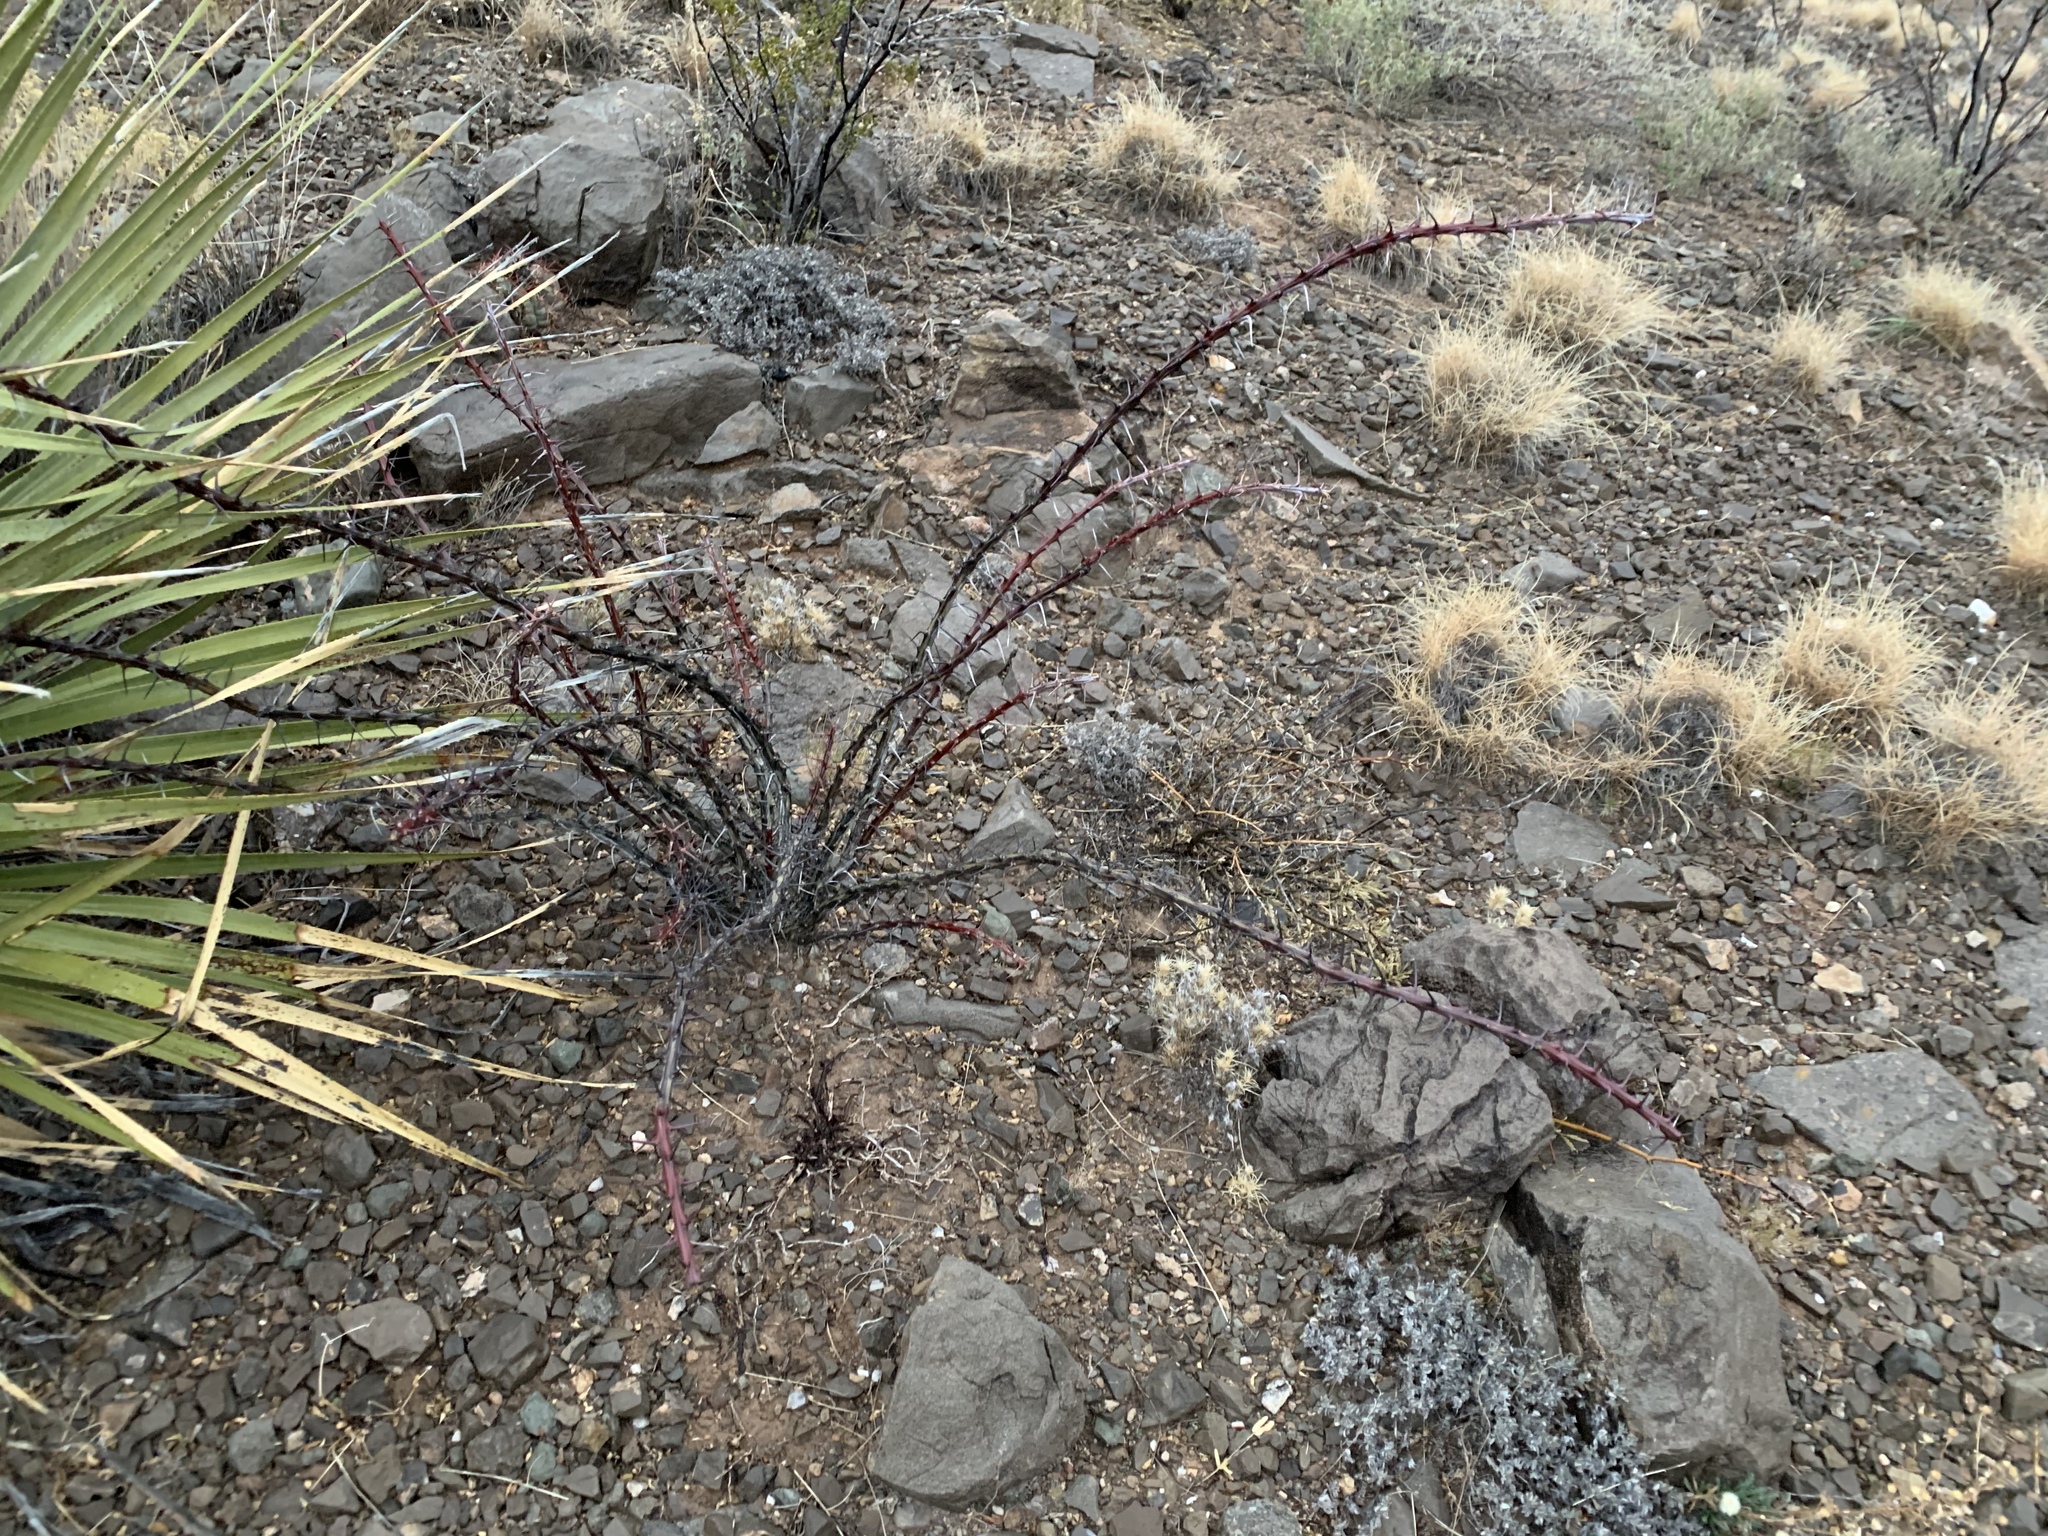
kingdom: Plantae
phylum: Tracheophyta
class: Magnoliopsida
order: Ericales
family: Fouquieriaceae
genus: Fouquieria
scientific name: Fouquieria splendens
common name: Vine-cactus
